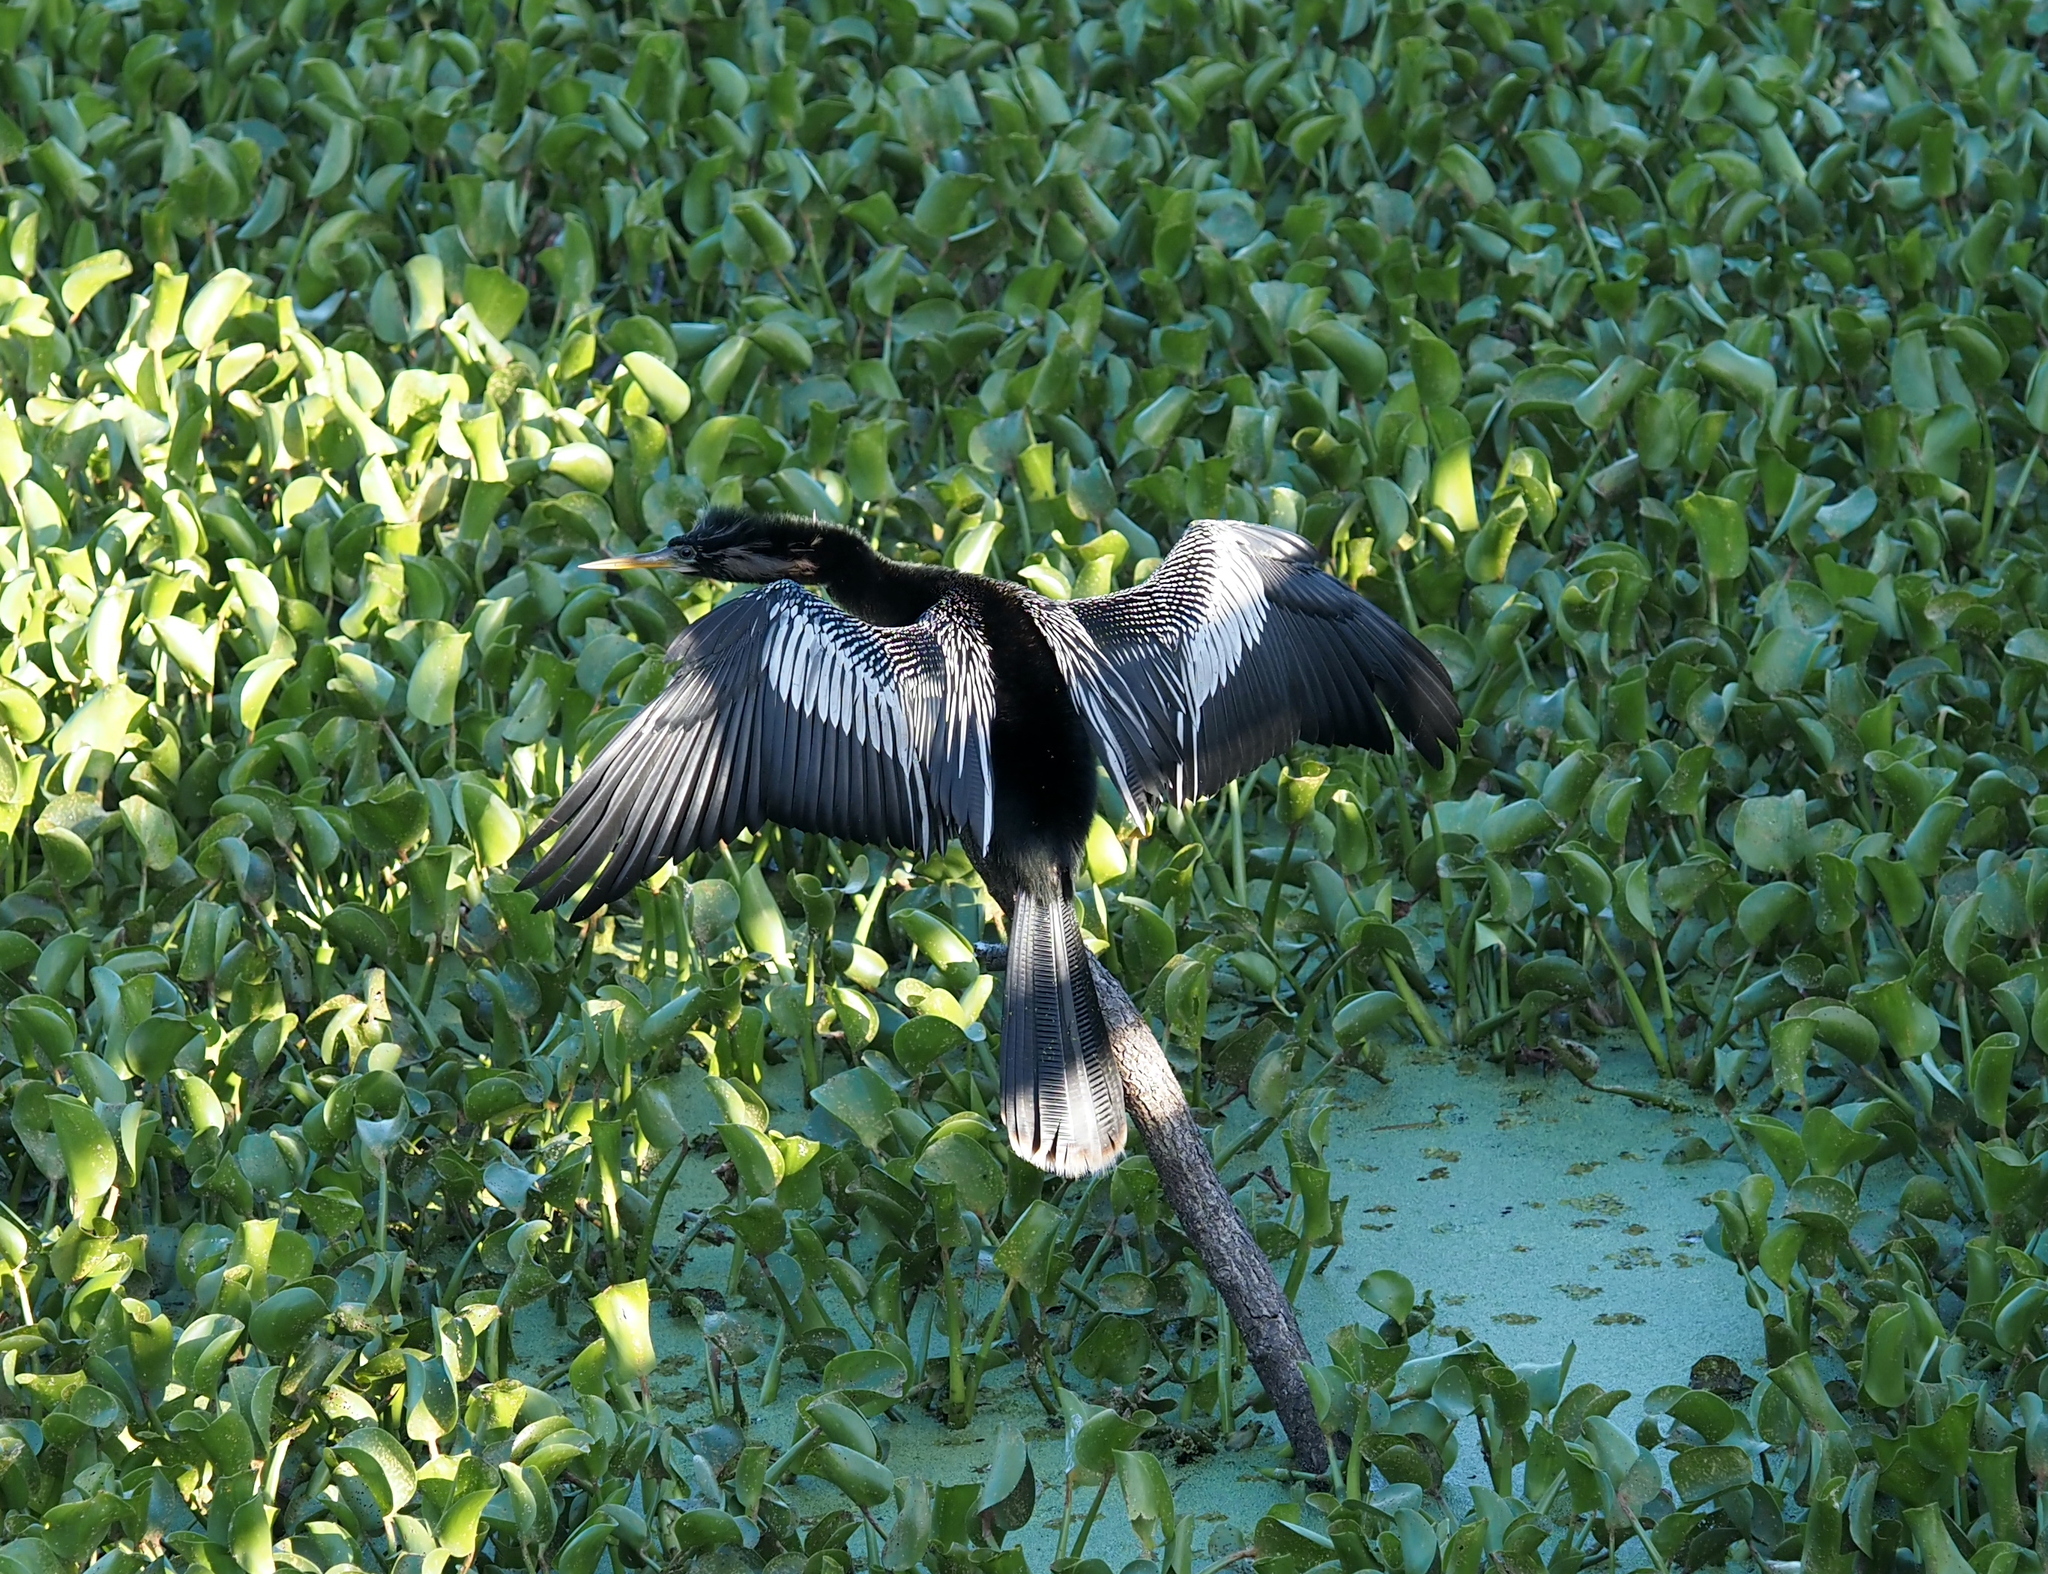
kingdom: Animalia
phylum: Chordata
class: Aves
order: Suliformes
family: Anhingidae
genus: Anhinga
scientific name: Anhinga anhinga
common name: Anhinga
